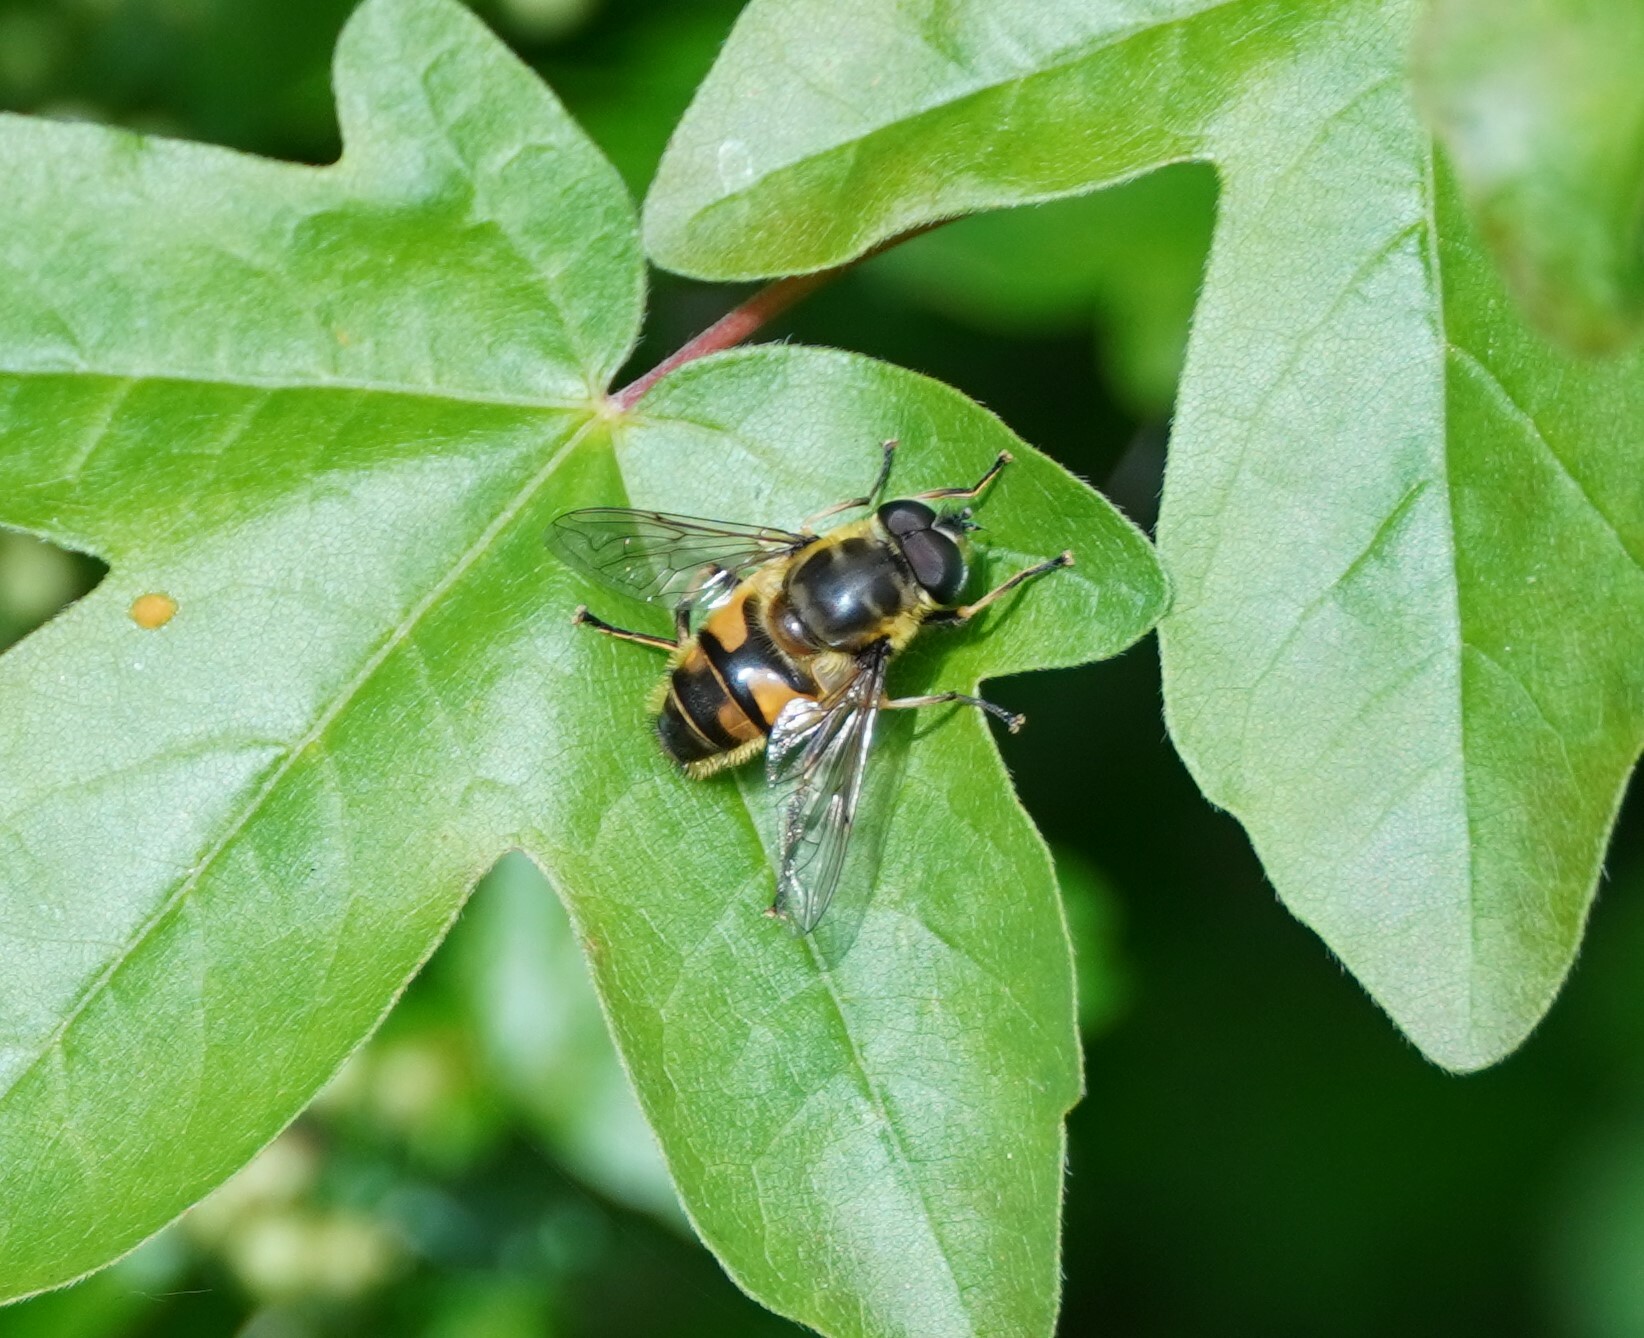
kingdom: Animalia
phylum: Arthropoda
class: Insecta
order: Diptera
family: Syrphidae
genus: Myathropa
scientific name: Myathropa florea
